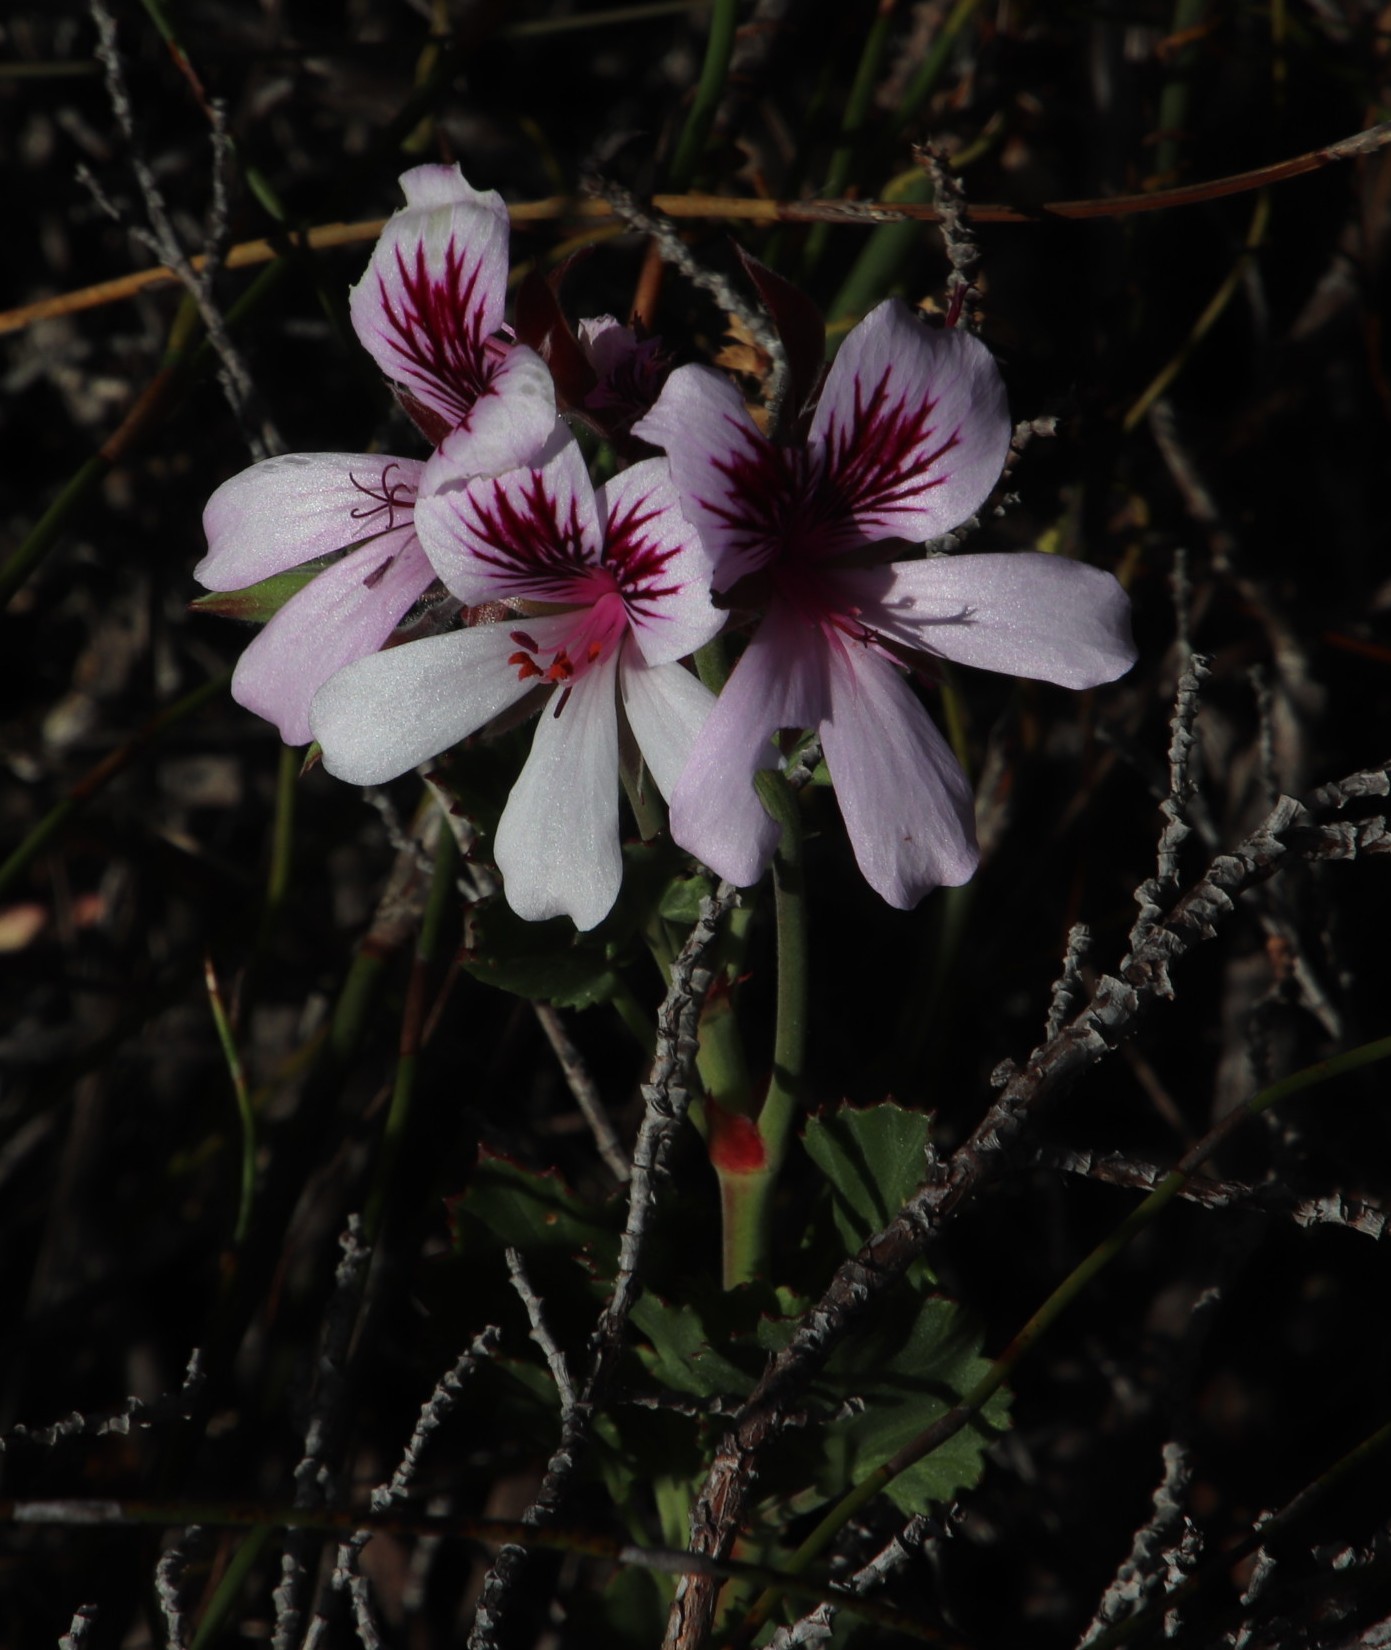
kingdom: Plantae
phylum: Tracheophyta
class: Magnoliopsida
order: Geraniales
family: Geraniaceae
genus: Pelargonium
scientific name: Pelargonium betulinum
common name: Birch-leaf pelargonium
